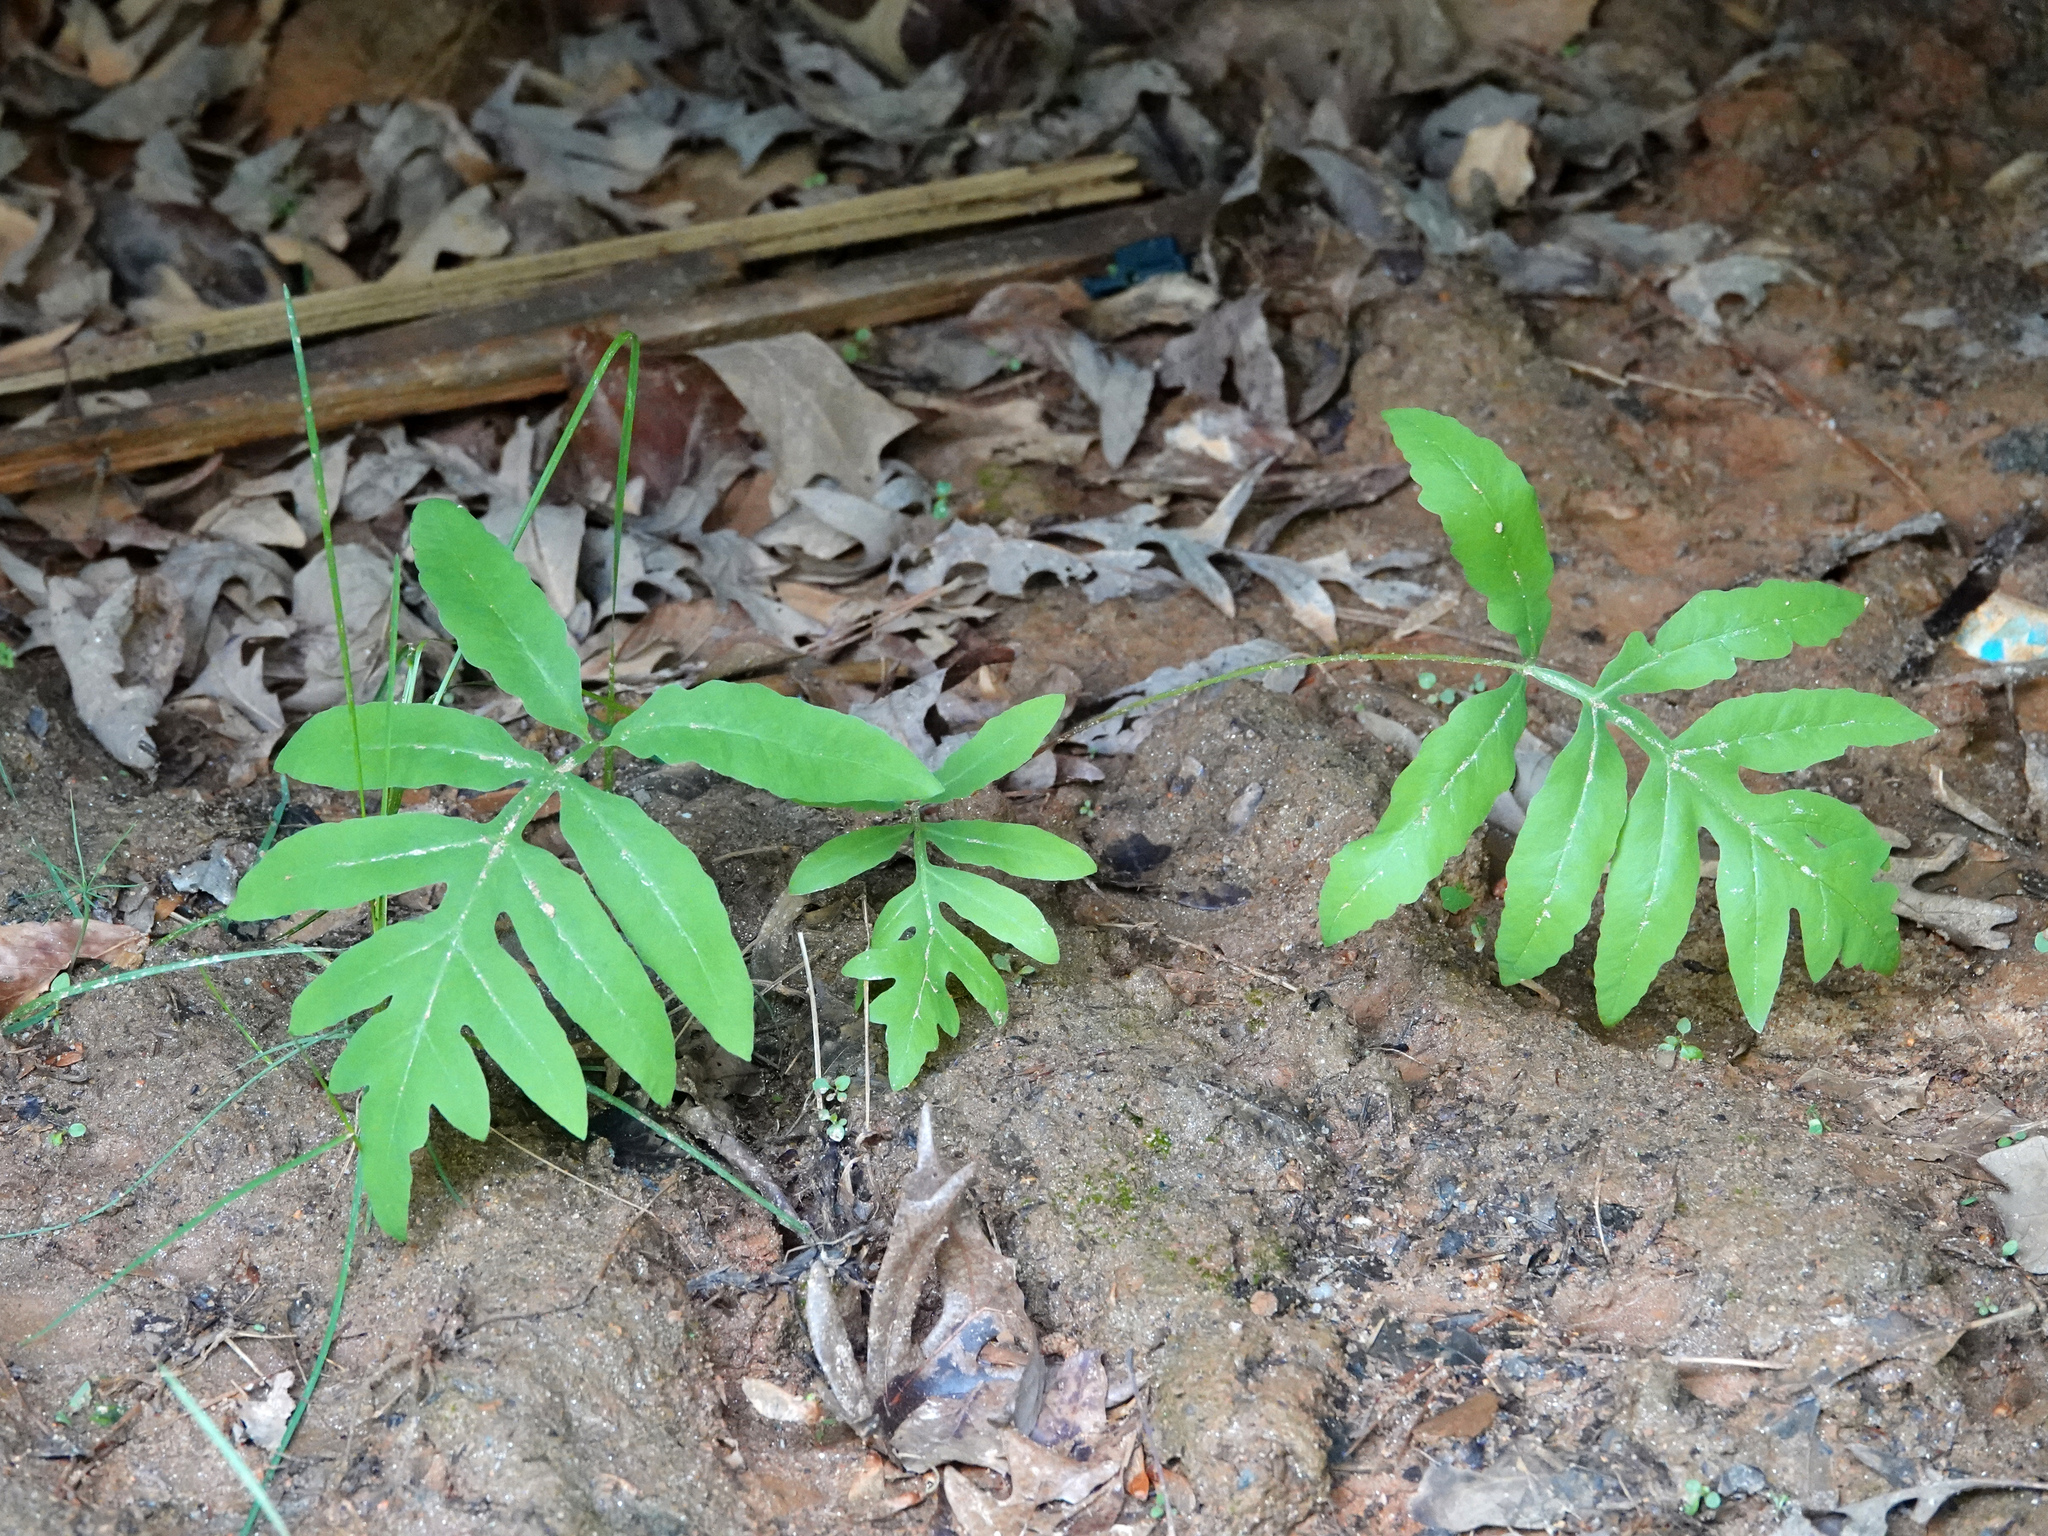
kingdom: Plantae
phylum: Tracheophyta
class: Polypodiopsida
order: Polypodiales
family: Onocleaceae
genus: Onoclea
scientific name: Onoclea sensibilis
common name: Sensitive fern
